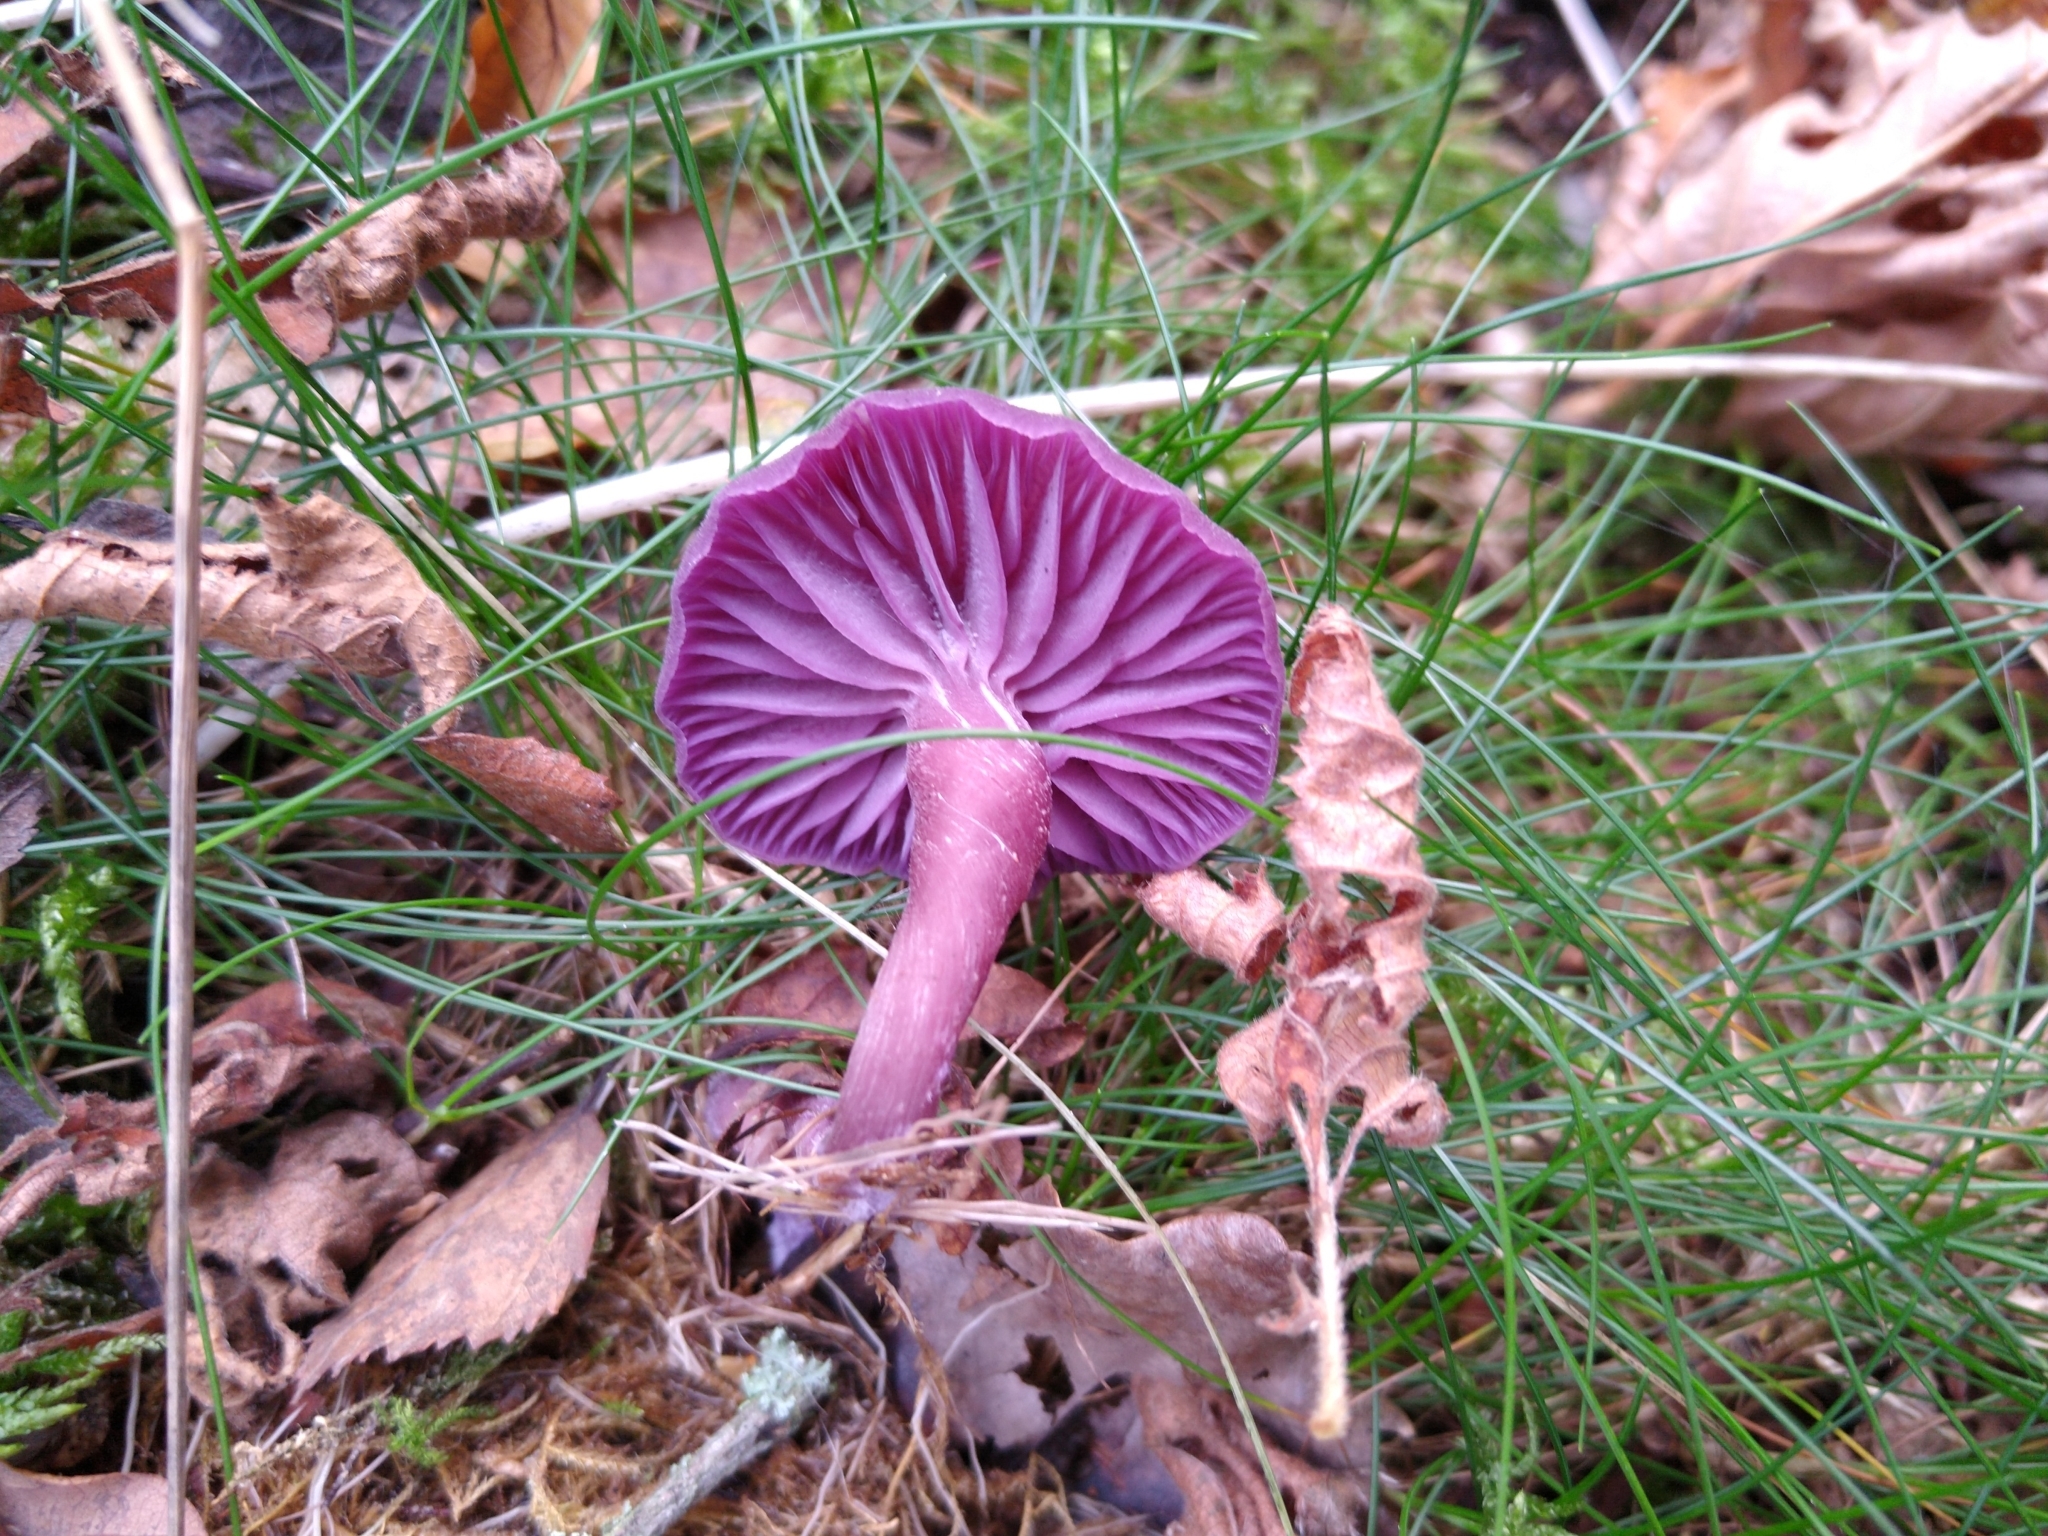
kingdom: Fungi
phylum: Basidiomycota
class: Agaricomycetes
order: Agaricales
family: Hydnangiaceae
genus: Laccaria
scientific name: Laccaria amethystina
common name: Amethyst deceiver
